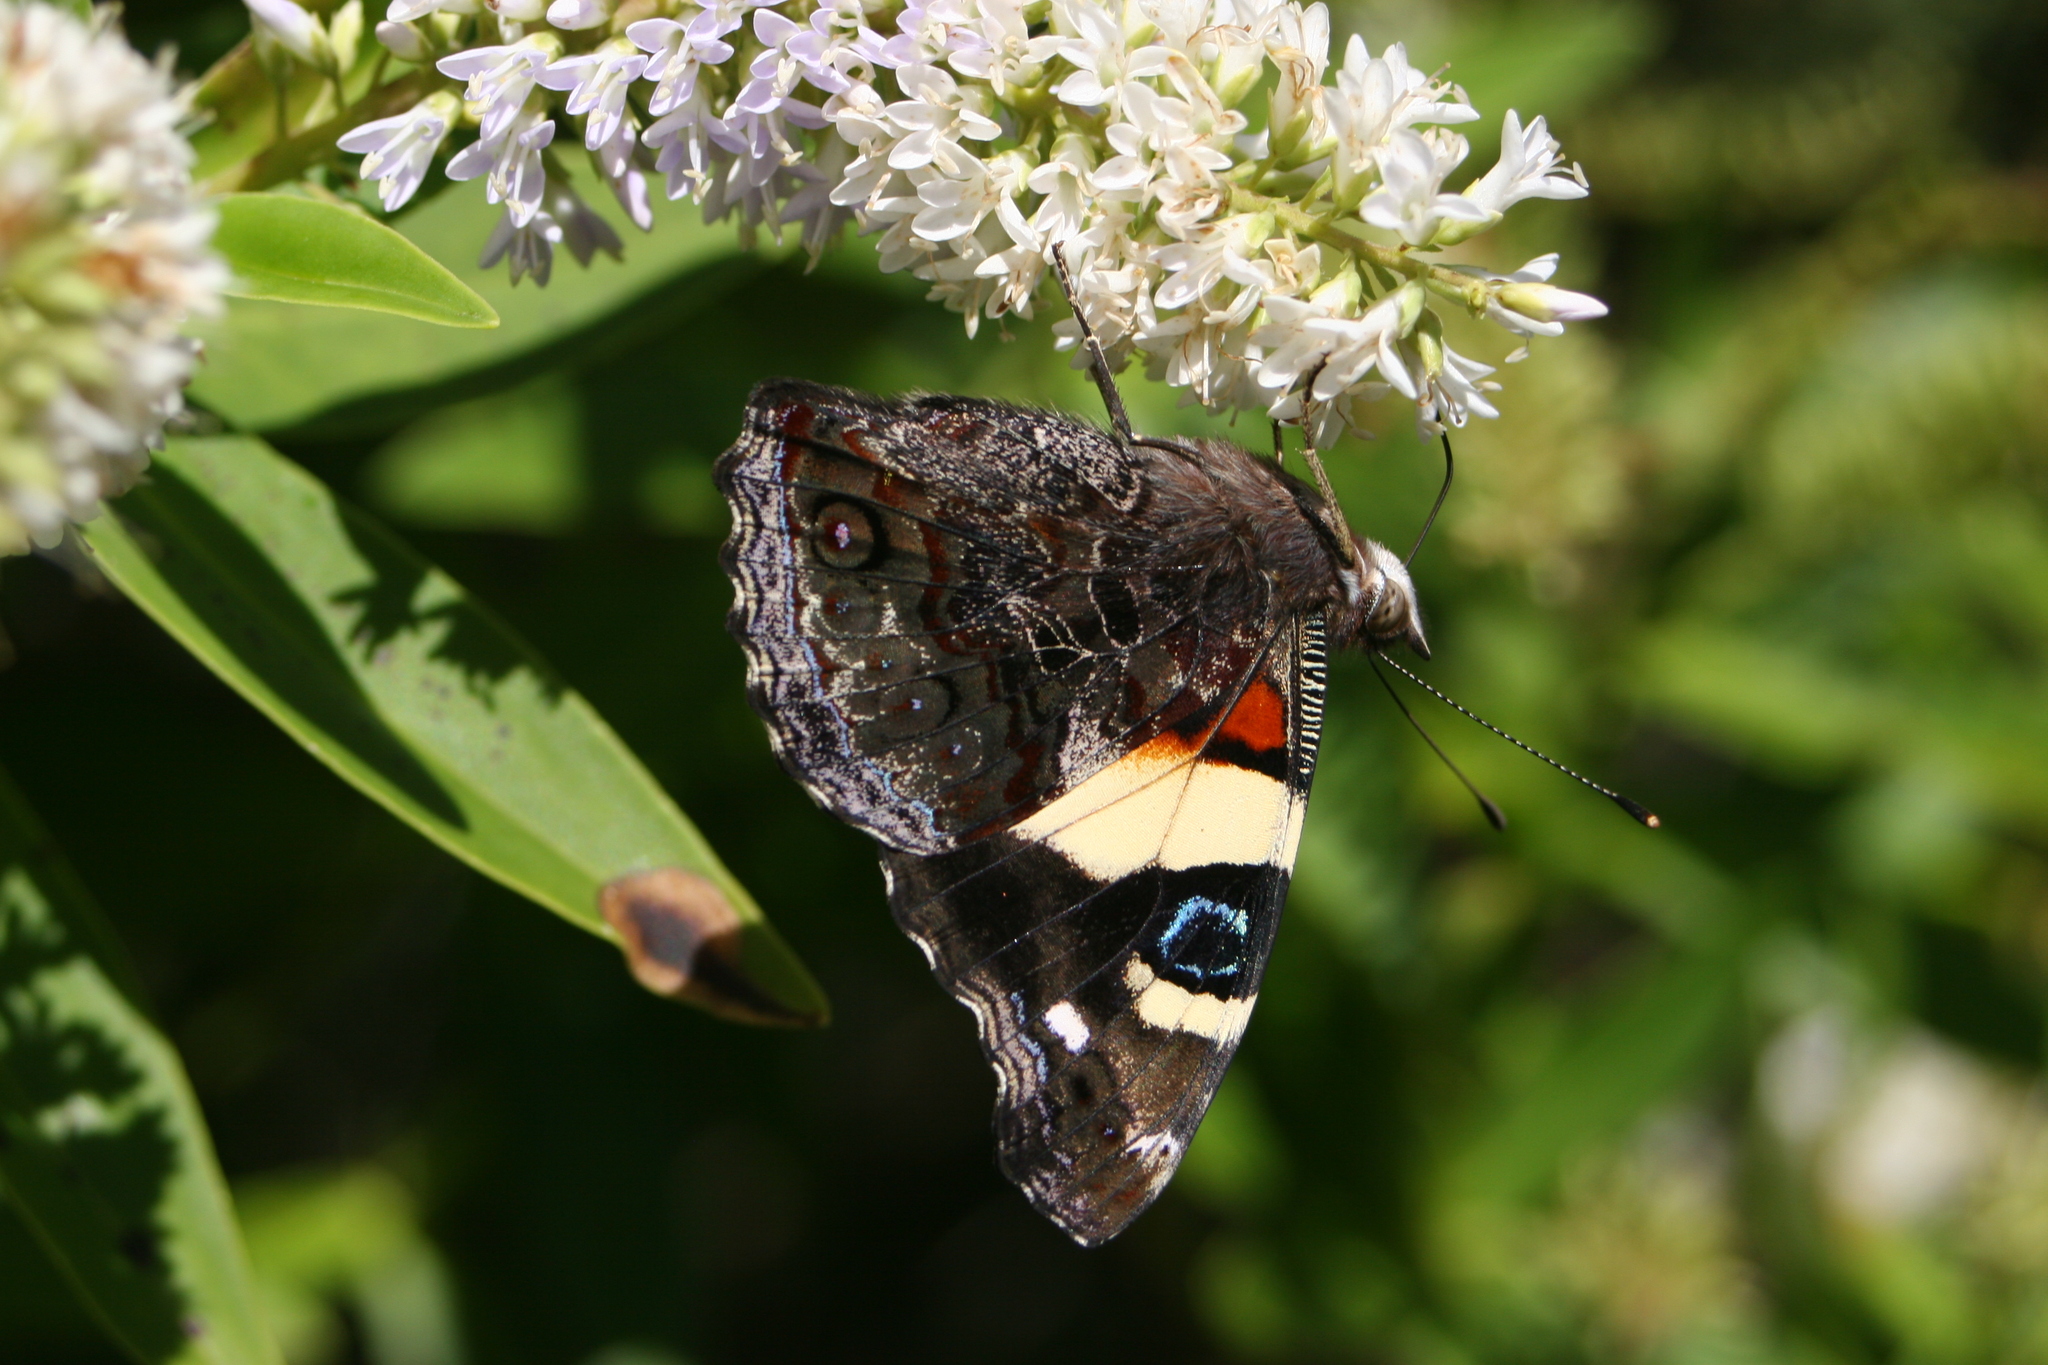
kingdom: Animalia
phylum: Arthropoda
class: Insecta
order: Lepidoptera
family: Nymphalidae
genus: Vanessa
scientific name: Vanessa itea
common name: Yellow admiral
